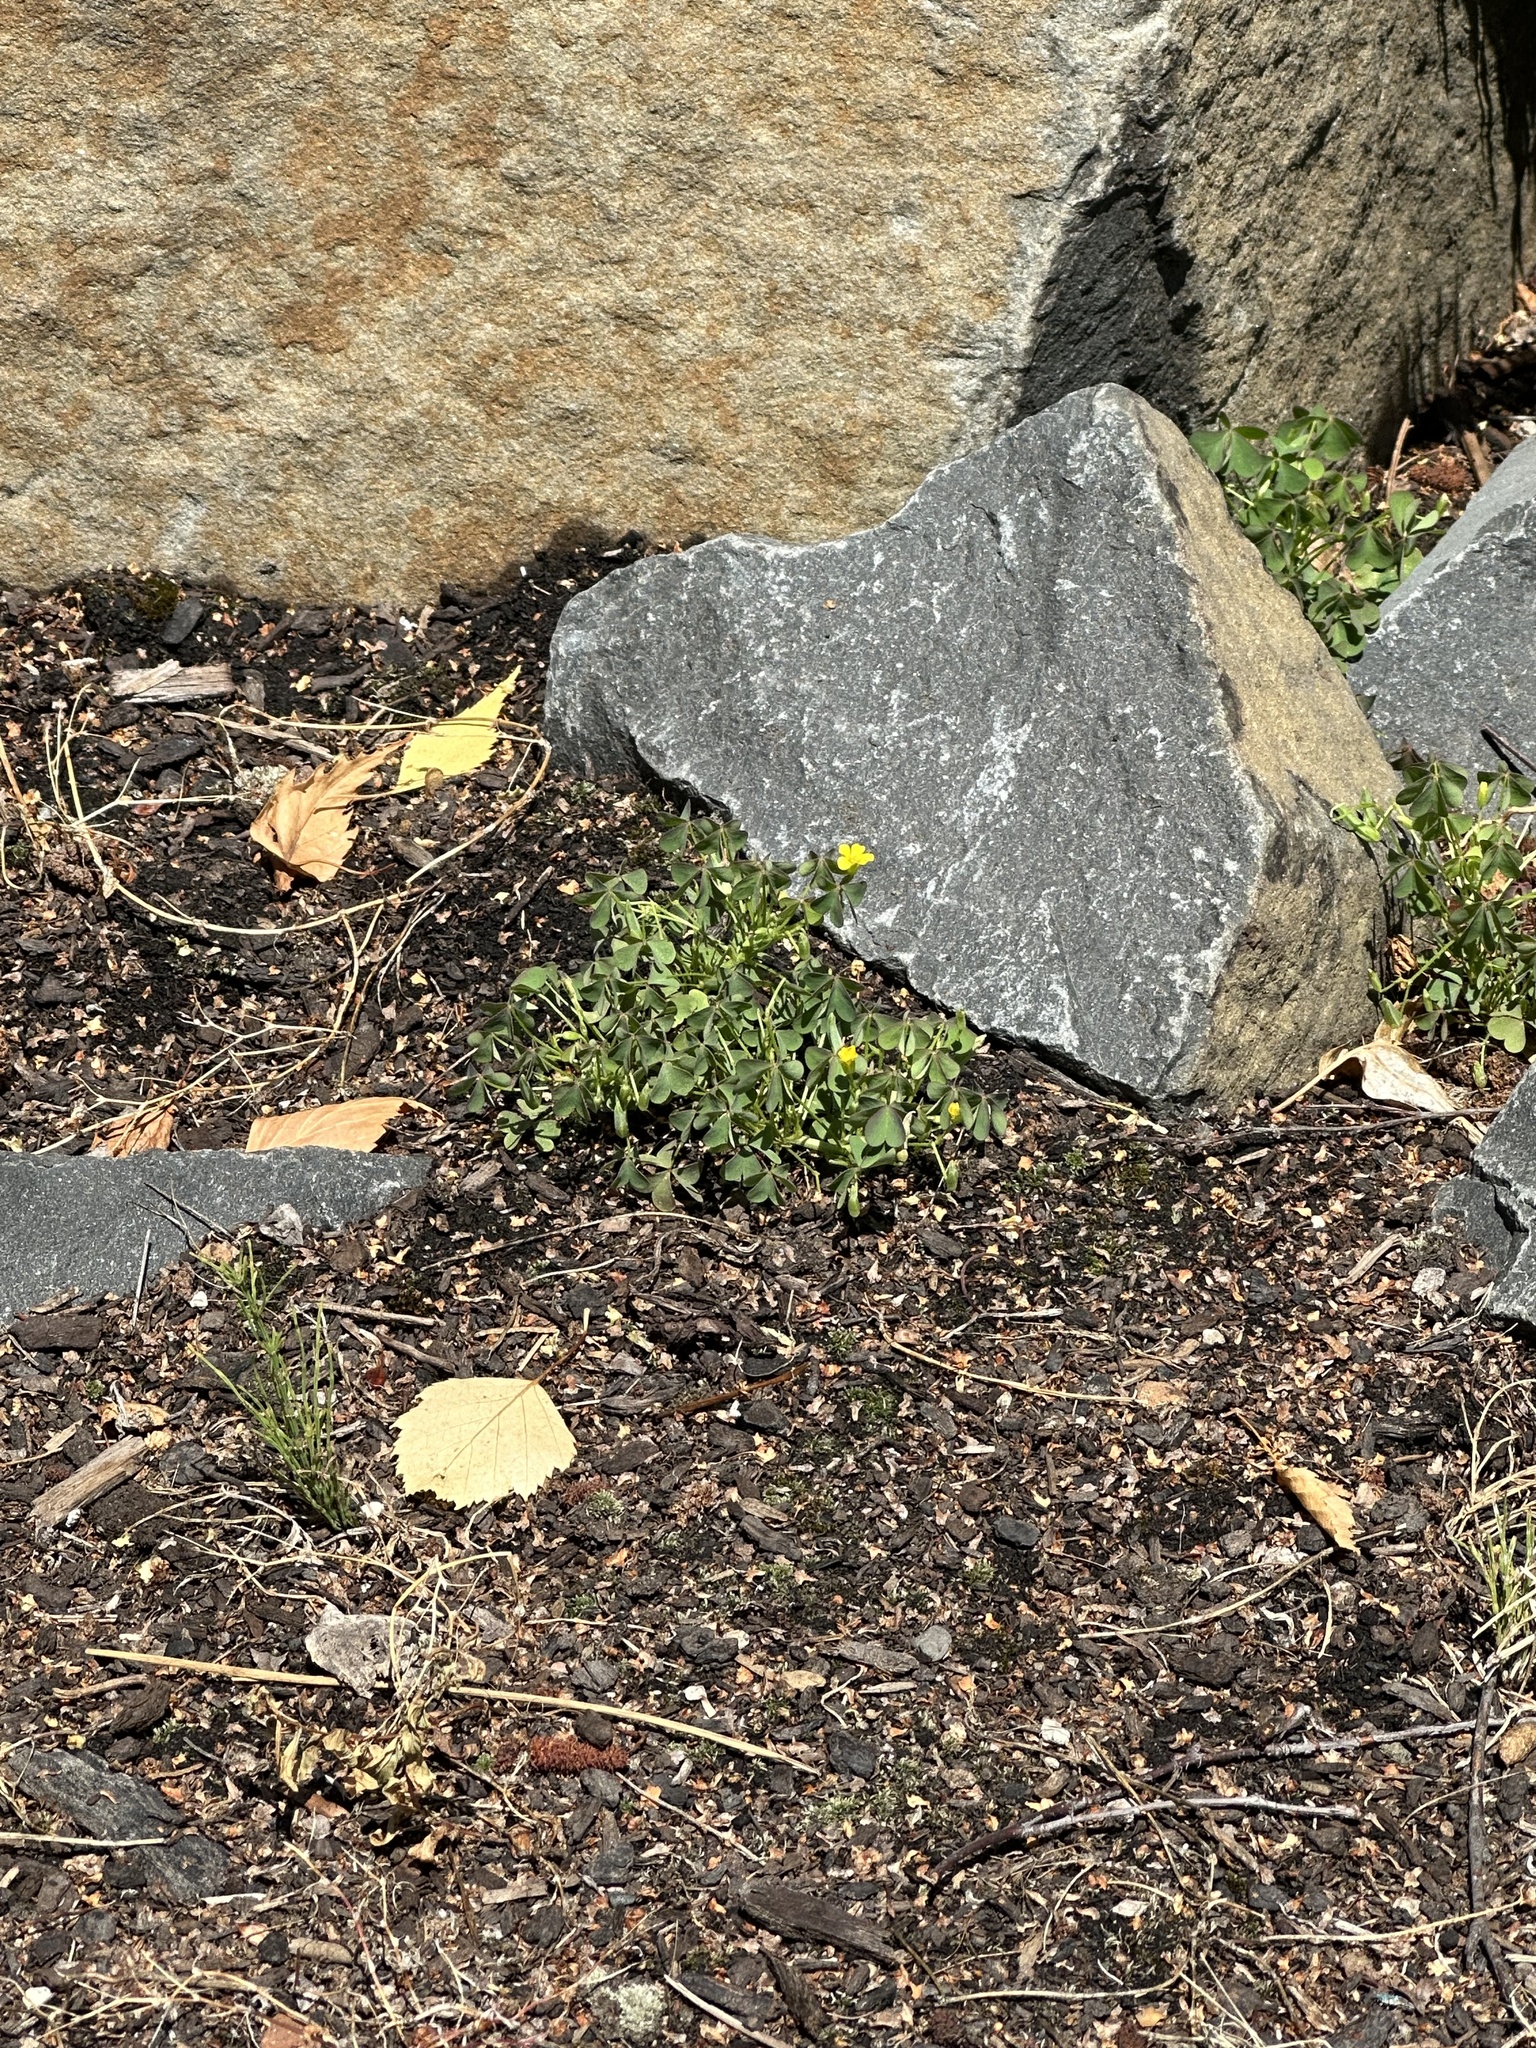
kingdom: Plantae
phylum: Tracheophyta
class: Magnoliopsida
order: Oxalidales
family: Oxalidaceae
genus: Oxalis
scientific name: Oxalis dillenii
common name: Sussex yellow-sorrel
